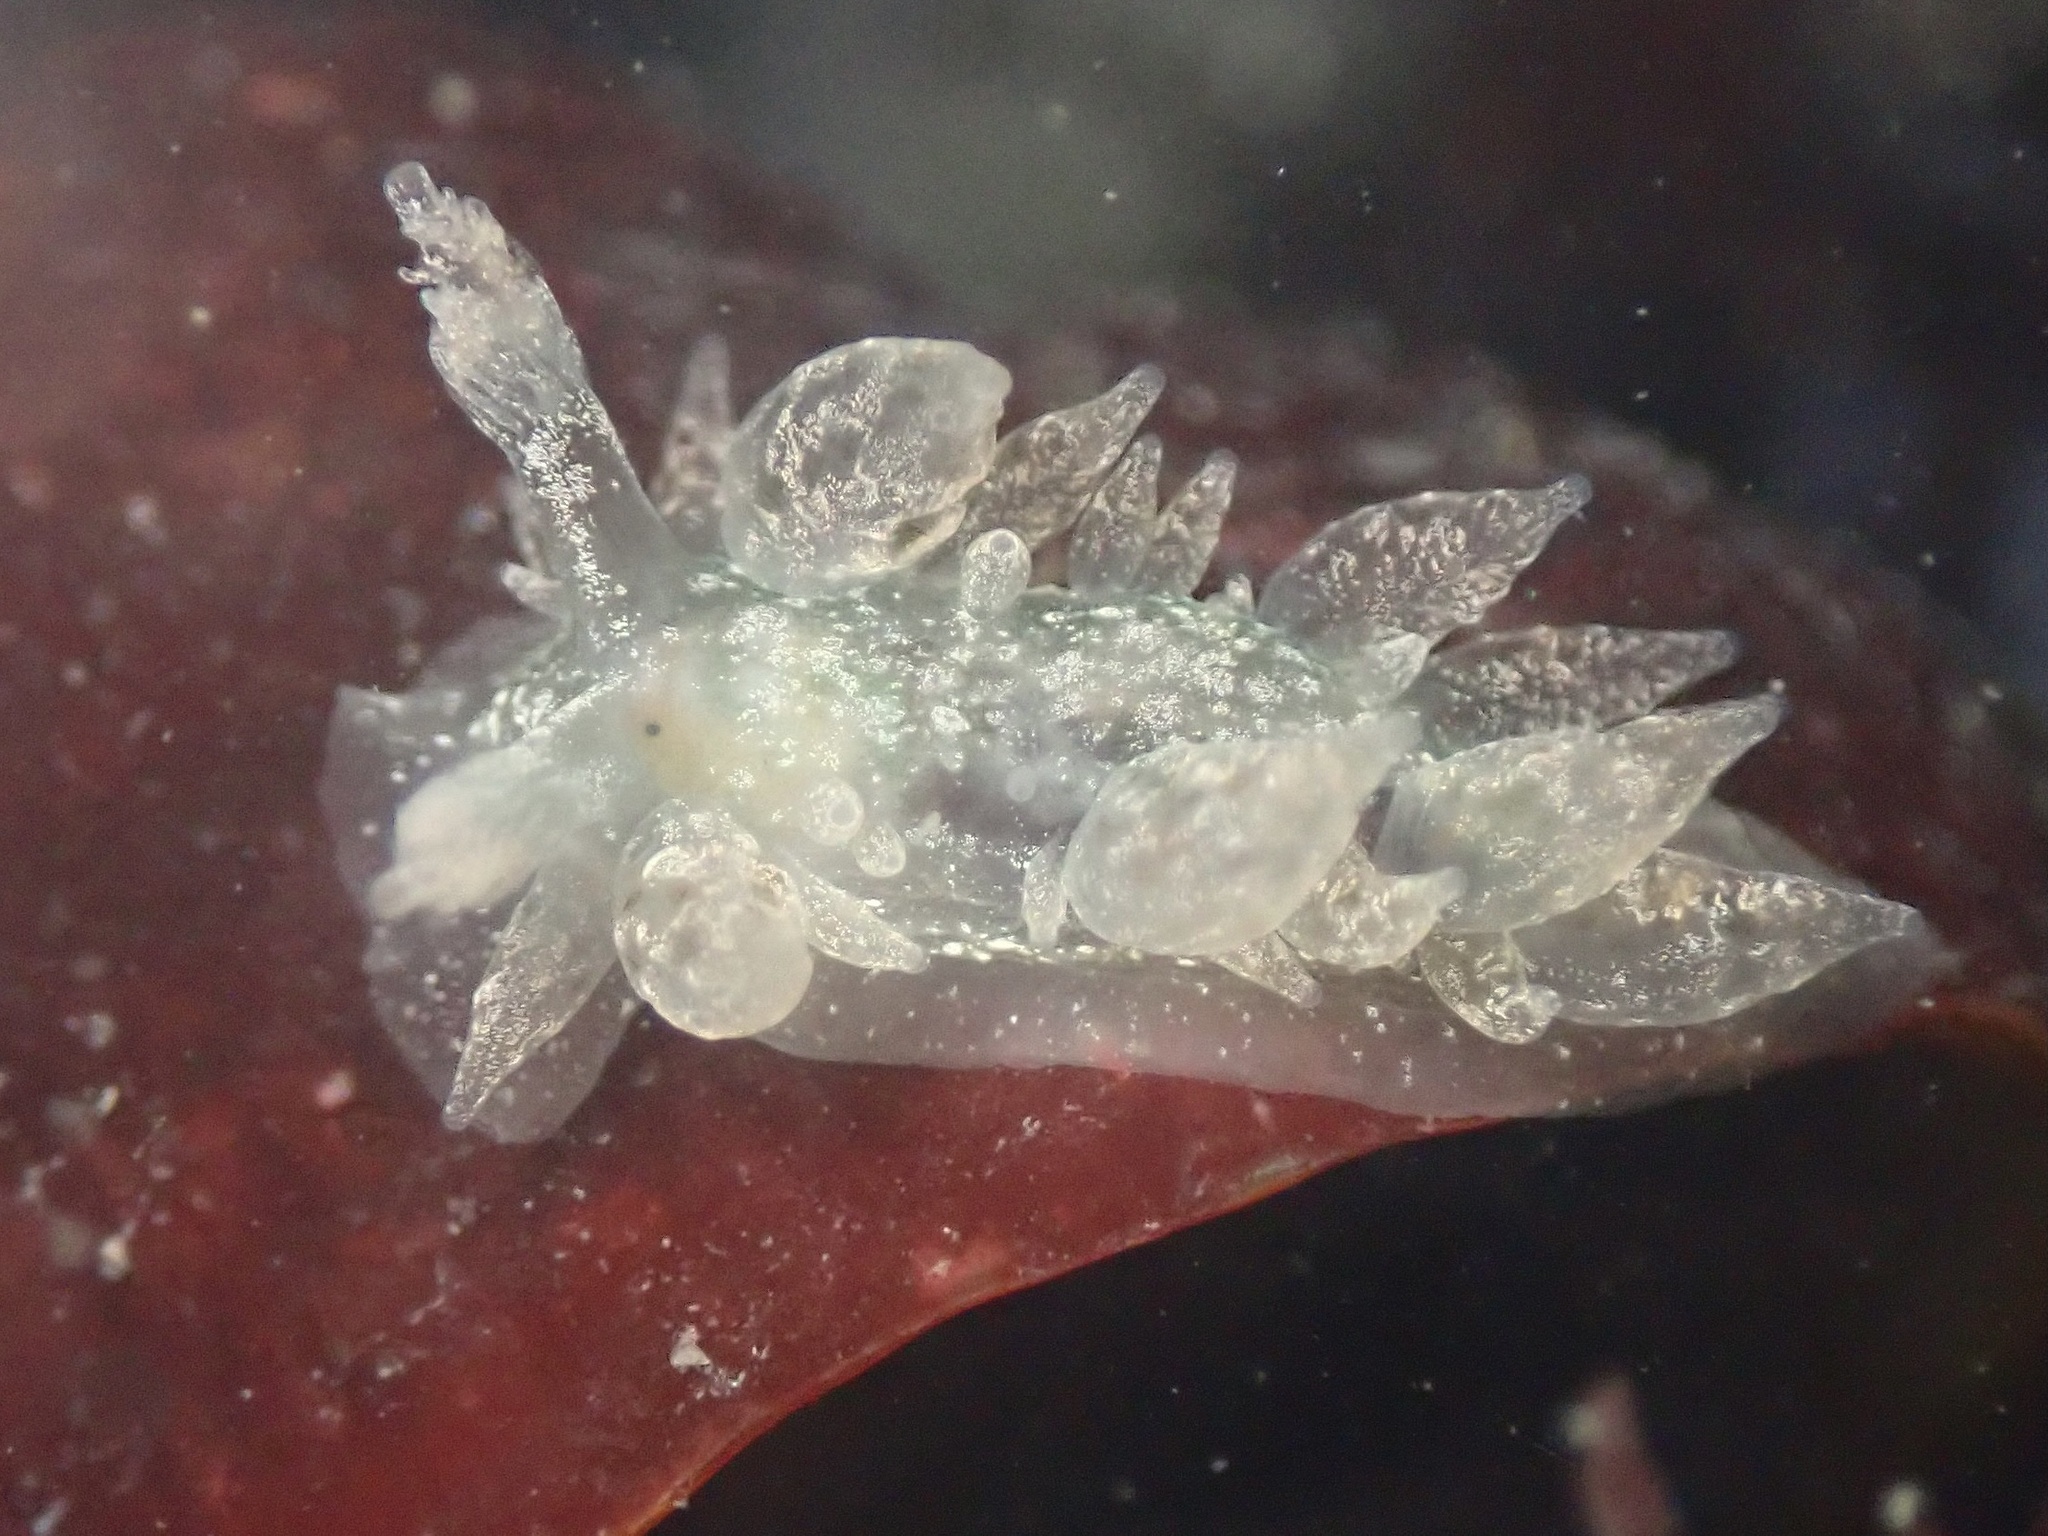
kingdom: Animalia
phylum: Mollusca
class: Gastropoda
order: Nudibranchia
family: Dironidae
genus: Dirona
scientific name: Dirona picta
